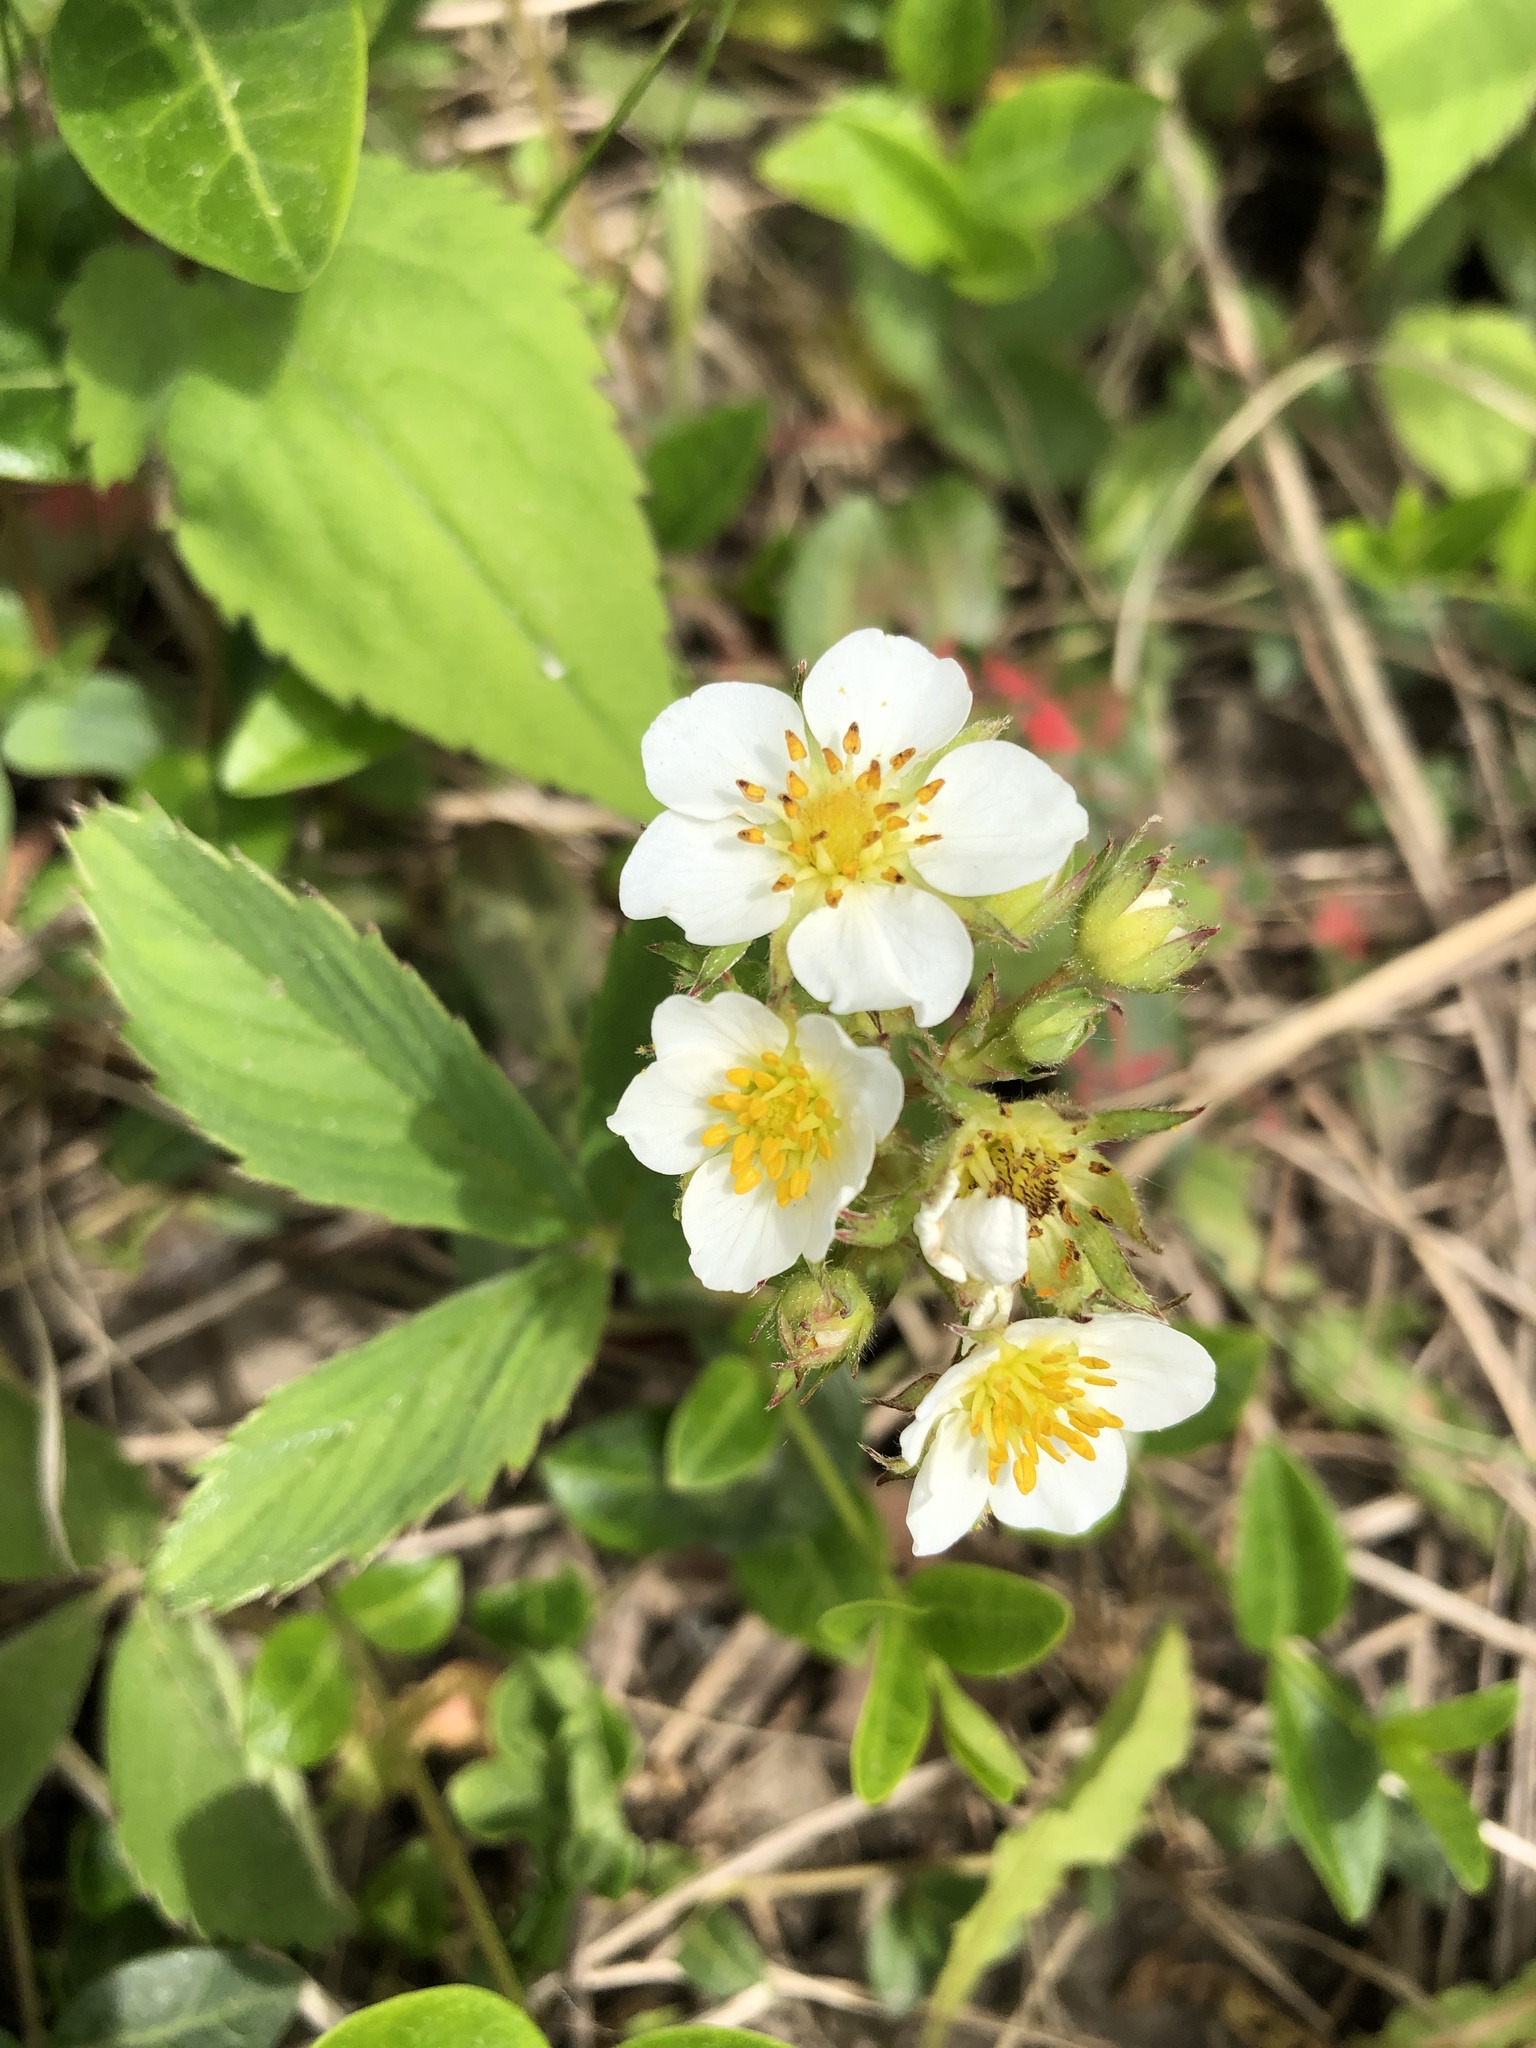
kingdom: Plantae
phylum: Tracheophyta
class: Magnoliopsida
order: Rosales
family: Rosaceae
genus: Fragaria
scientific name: Fragaria virginiana
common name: Thickleaved wild strawberry
